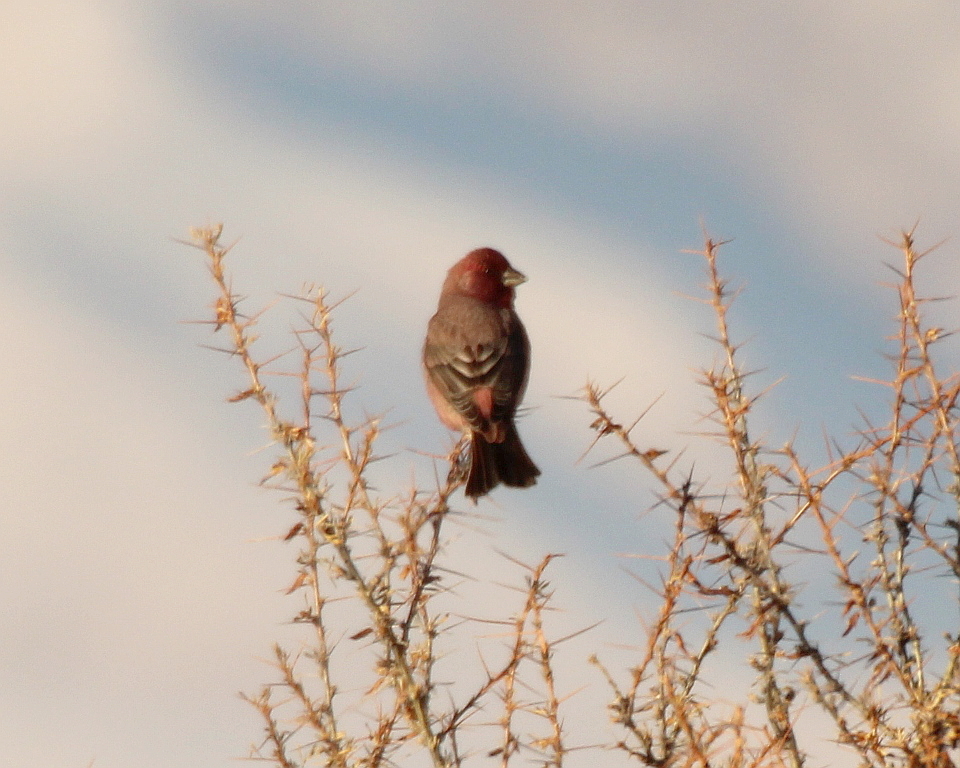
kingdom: Animalia
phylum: Chordata
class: Aves
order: Passeriformes
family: Fringillidae
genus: Carpodacus
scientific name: Carpodacus rubicilla
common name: Great rosefinch
